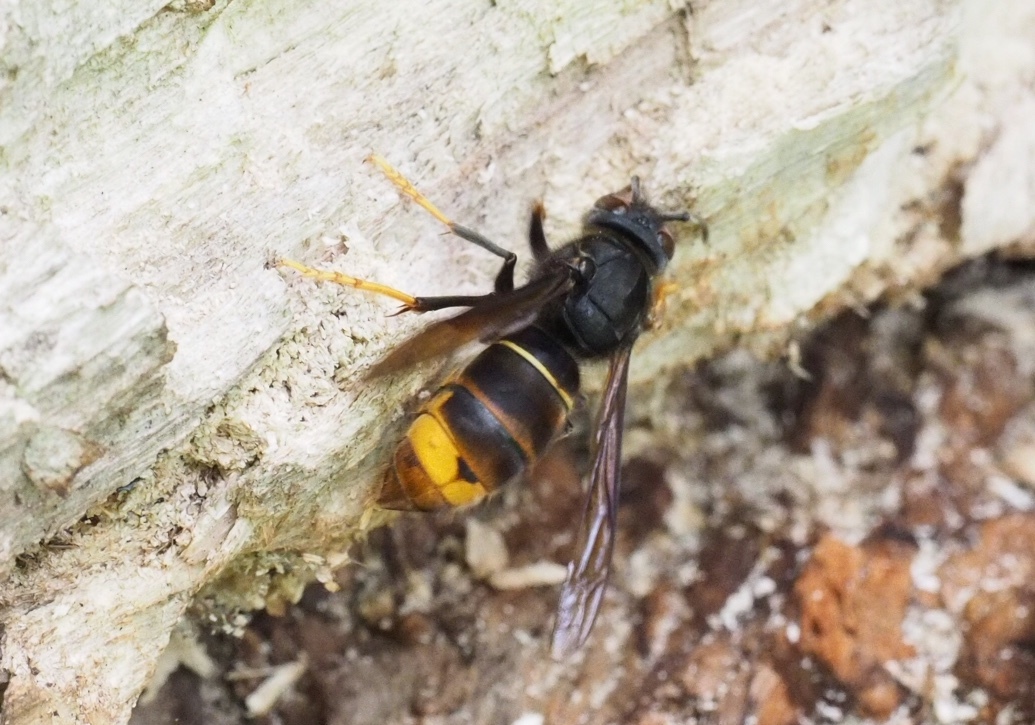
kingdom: Animalia
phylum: Arthropoda
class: Insecta
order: Hymenoptera
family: Vespidae
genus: Vespa
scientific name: Vespa velutina
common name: Asian hornet
